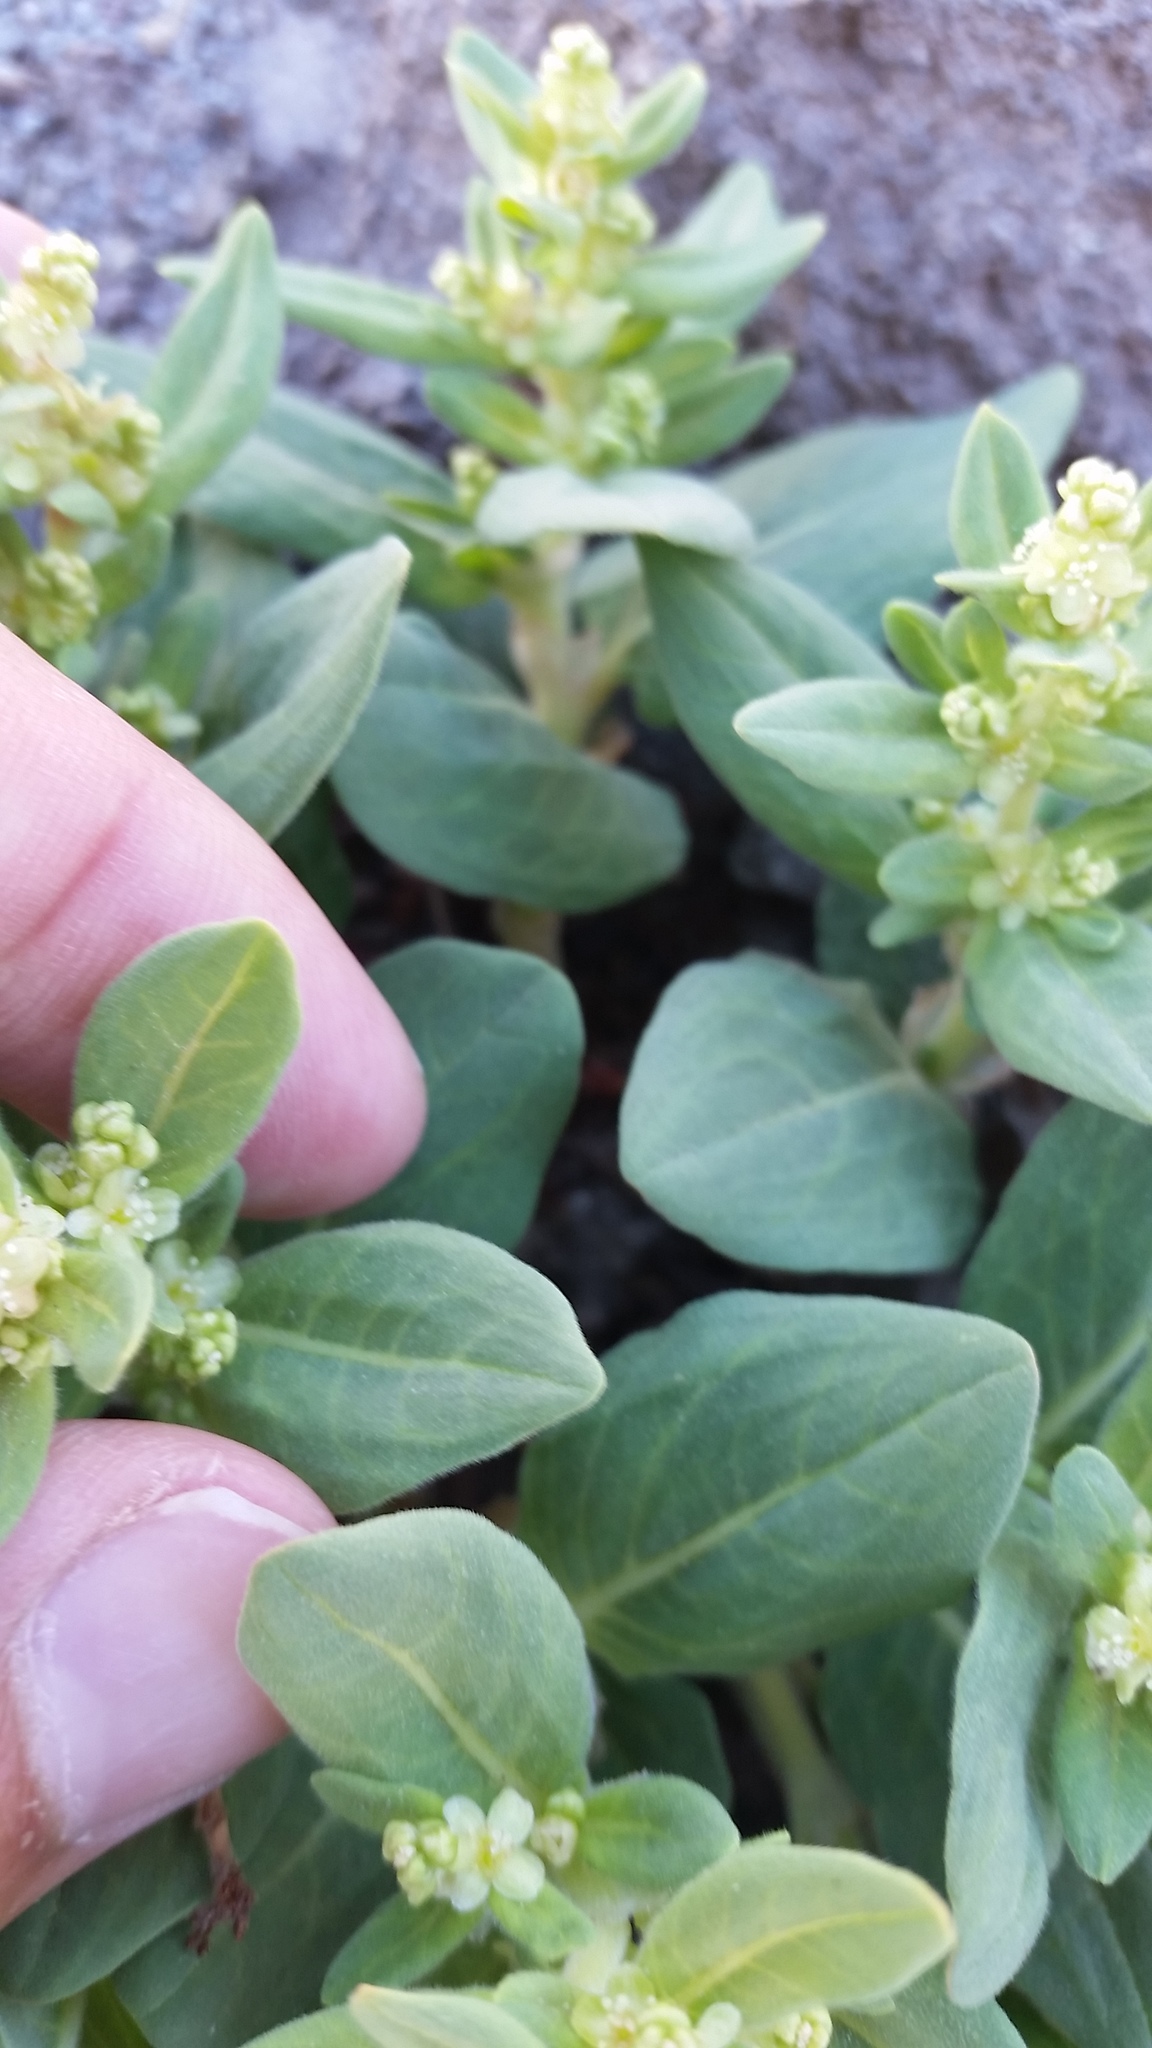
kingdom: Plantae
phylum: Tracheophyta
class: Magnoliopsida
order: Caryophyllales
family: Polygonaceae
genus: Koenigia
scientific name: Koenigia davisiae
